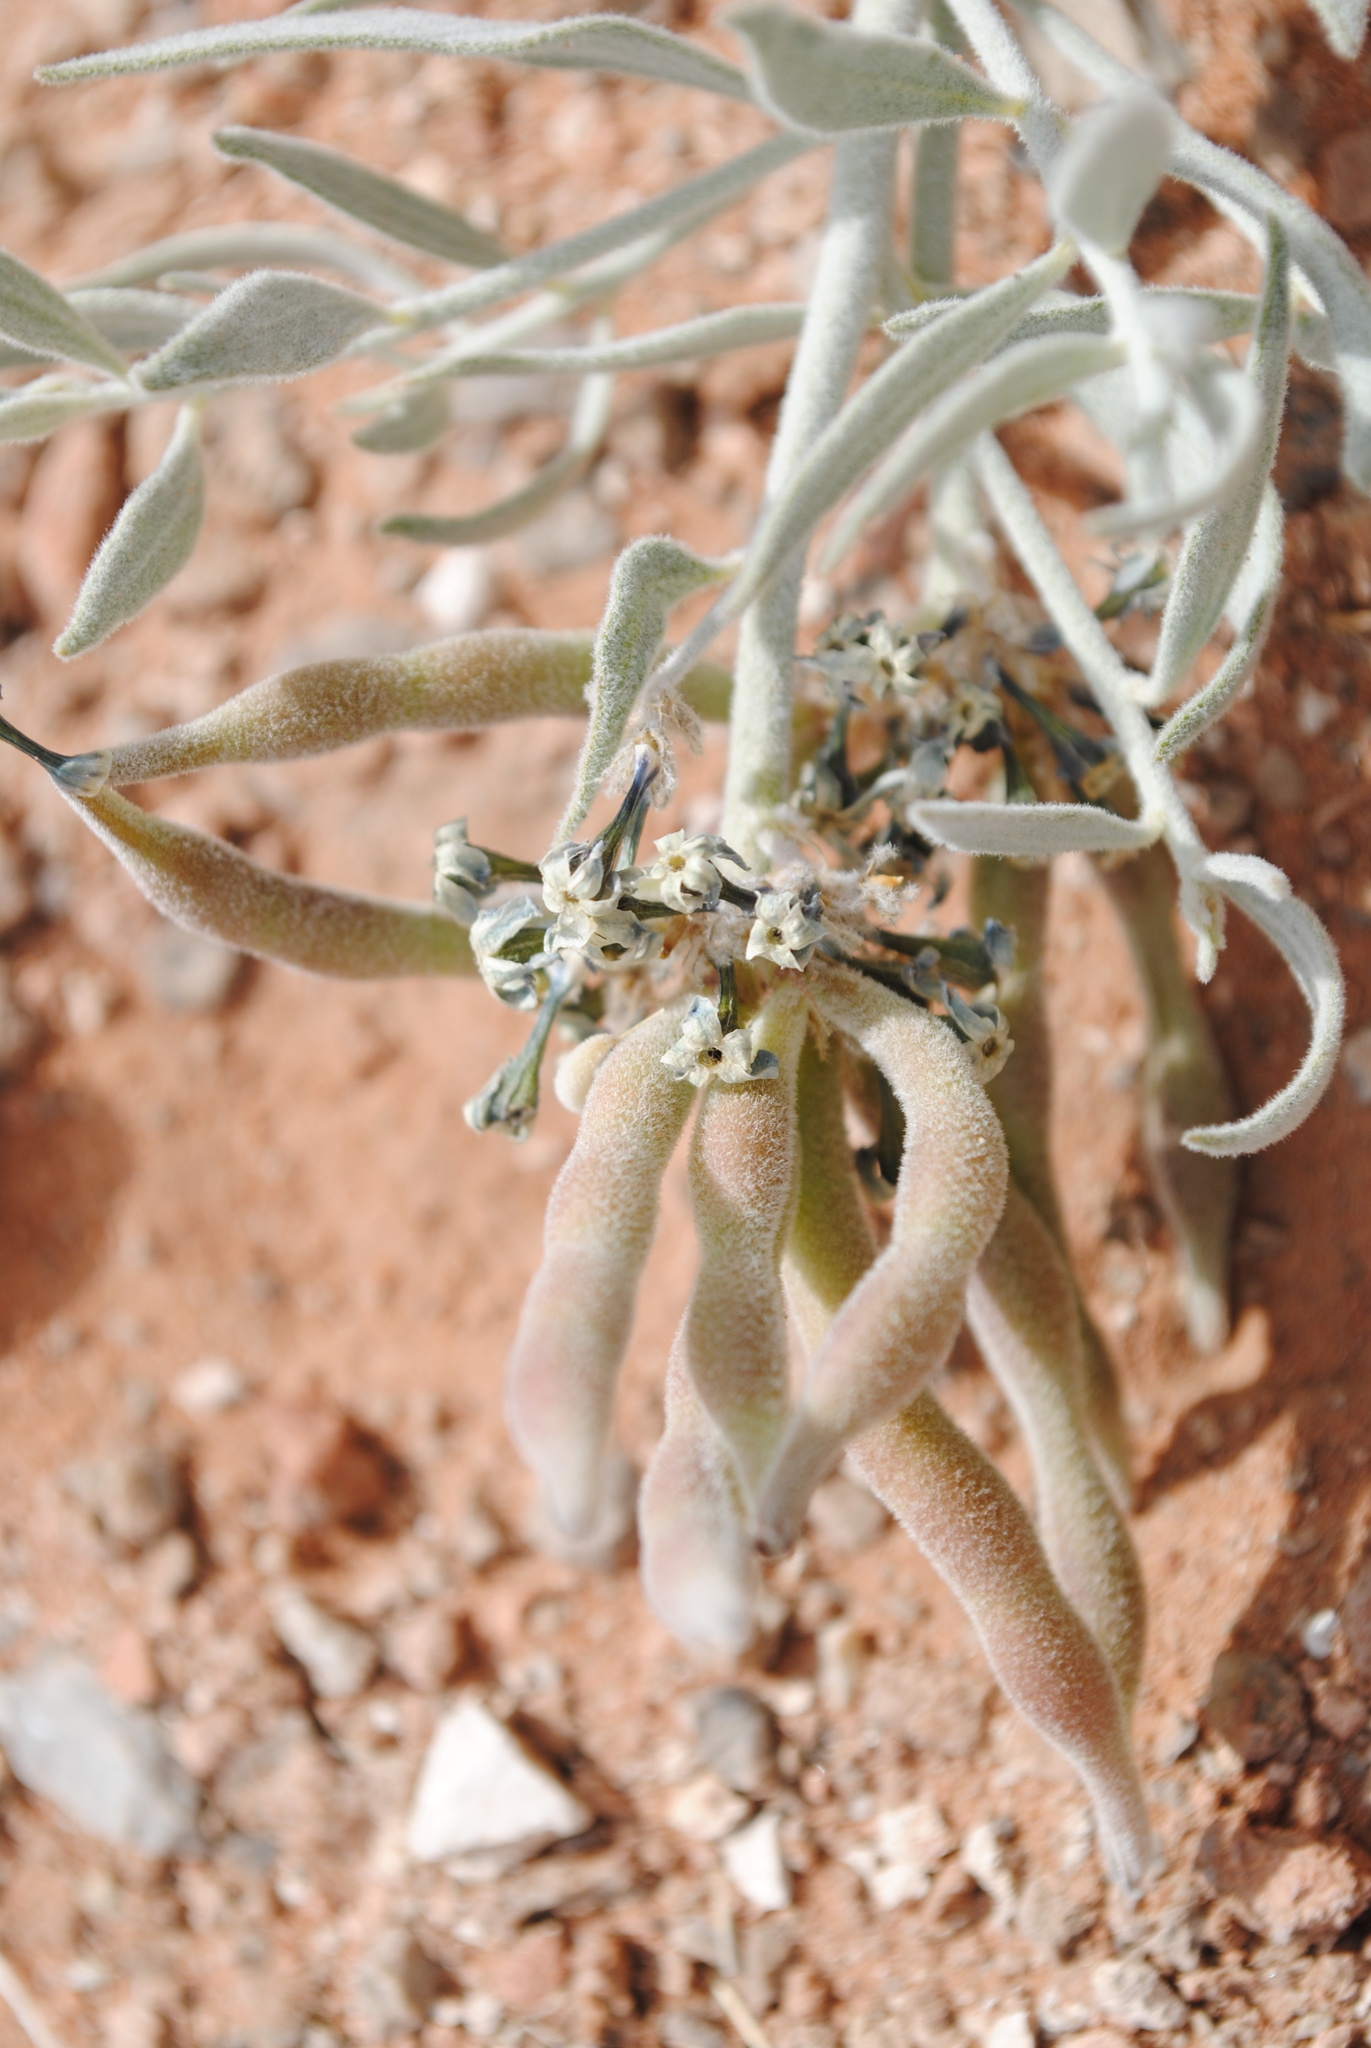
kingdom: Plantae
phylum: Tracheophyta
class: Magnoliopsida
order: Gentianales
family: Apocynaceae
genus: Amsonia
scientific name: Amsonia tomentosa
